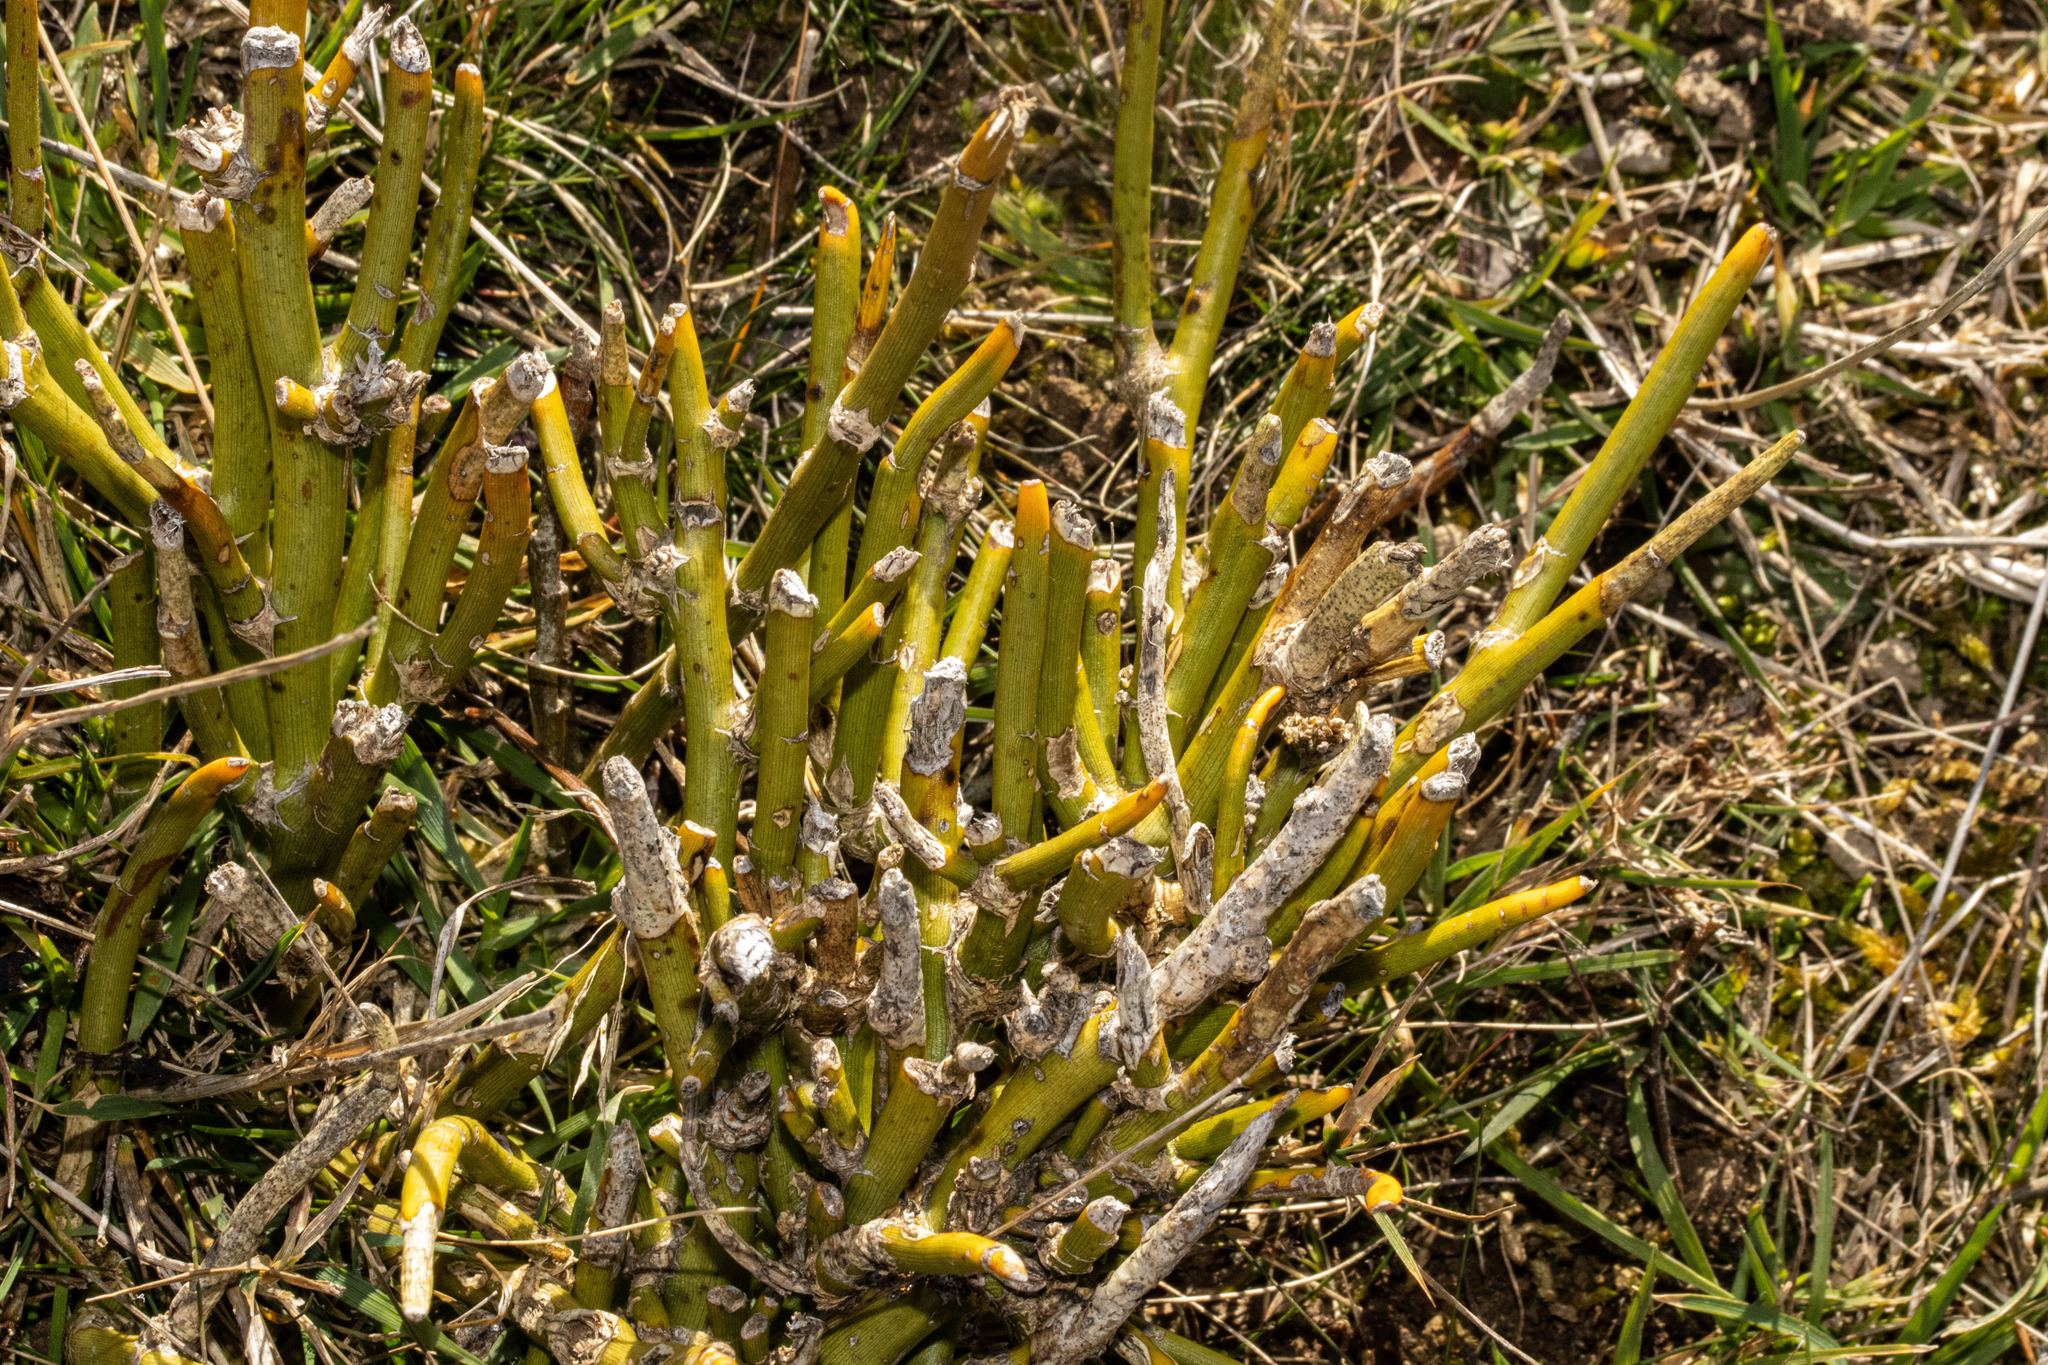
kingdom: Plantae
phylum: Tracheophyta
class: Magnoliopsida
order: Fabales
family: Fabaceae
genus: Carmichaelia
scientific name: Carmichaelia petriei
